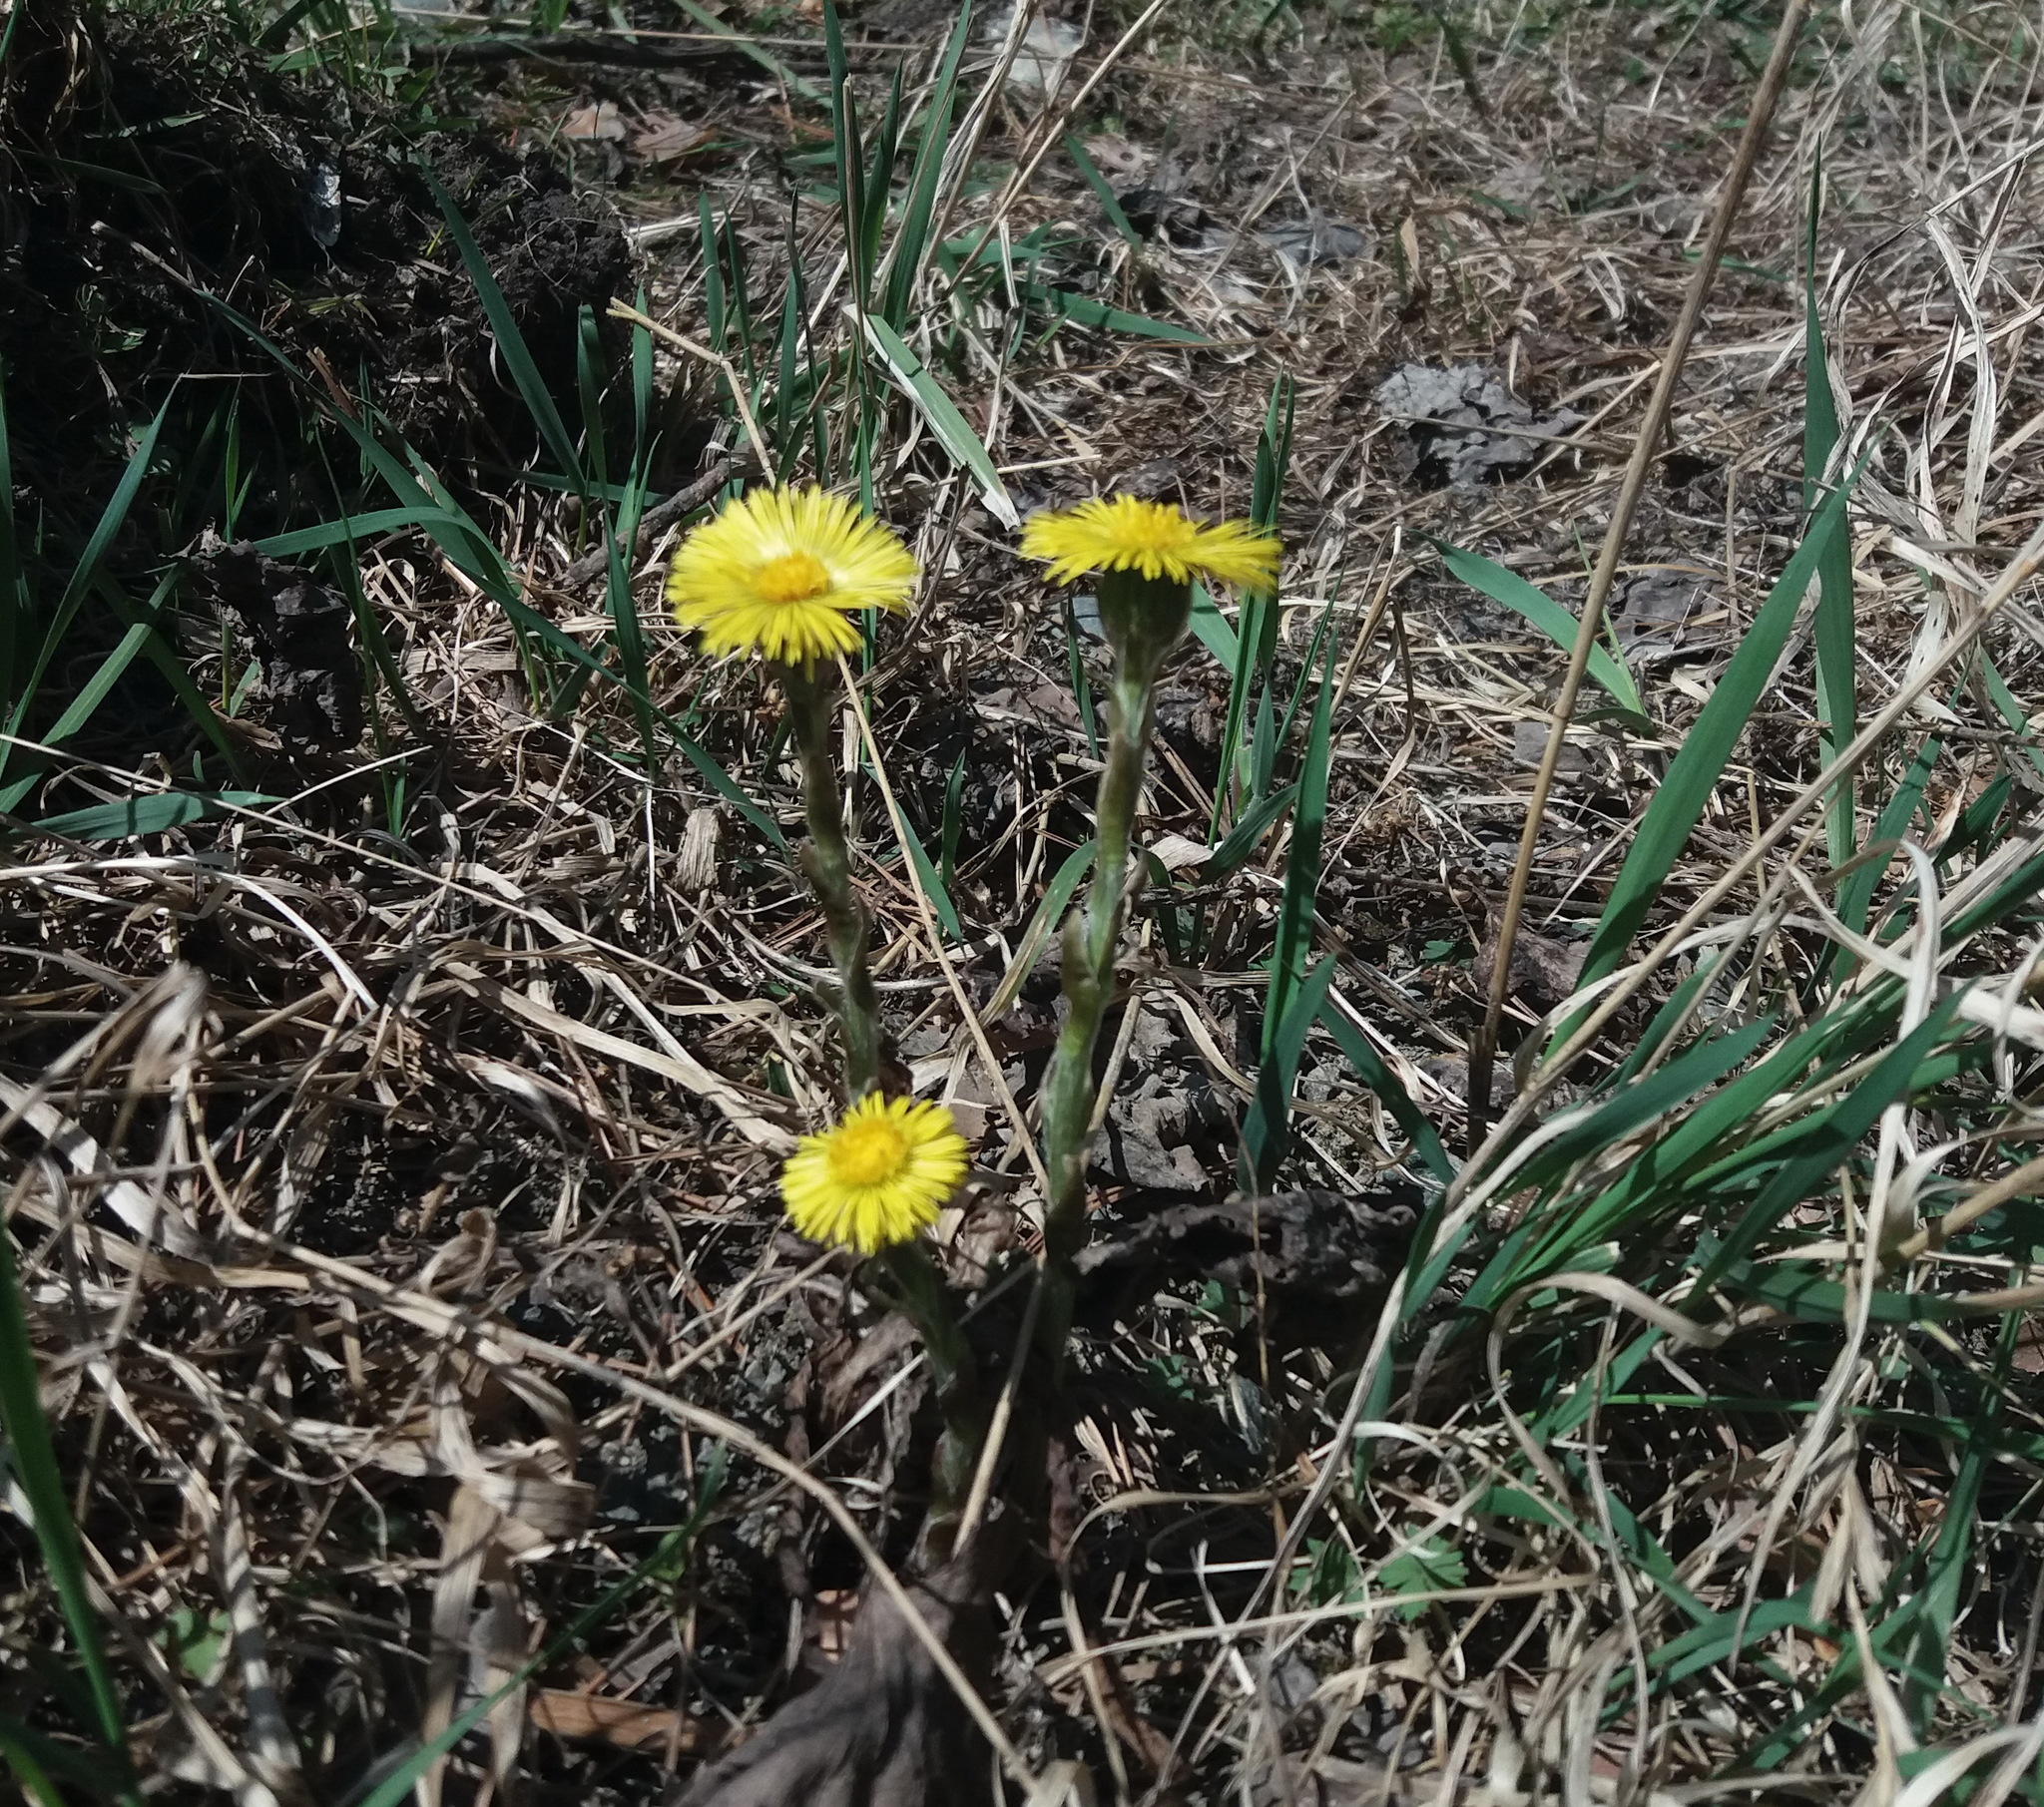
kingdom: Plantae
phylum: Tracheophyta
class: Magnoliopsida
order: Asterales
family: Asteraceae
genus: Tussilago
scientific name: Tussilago farfara
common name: Coltsfoot
